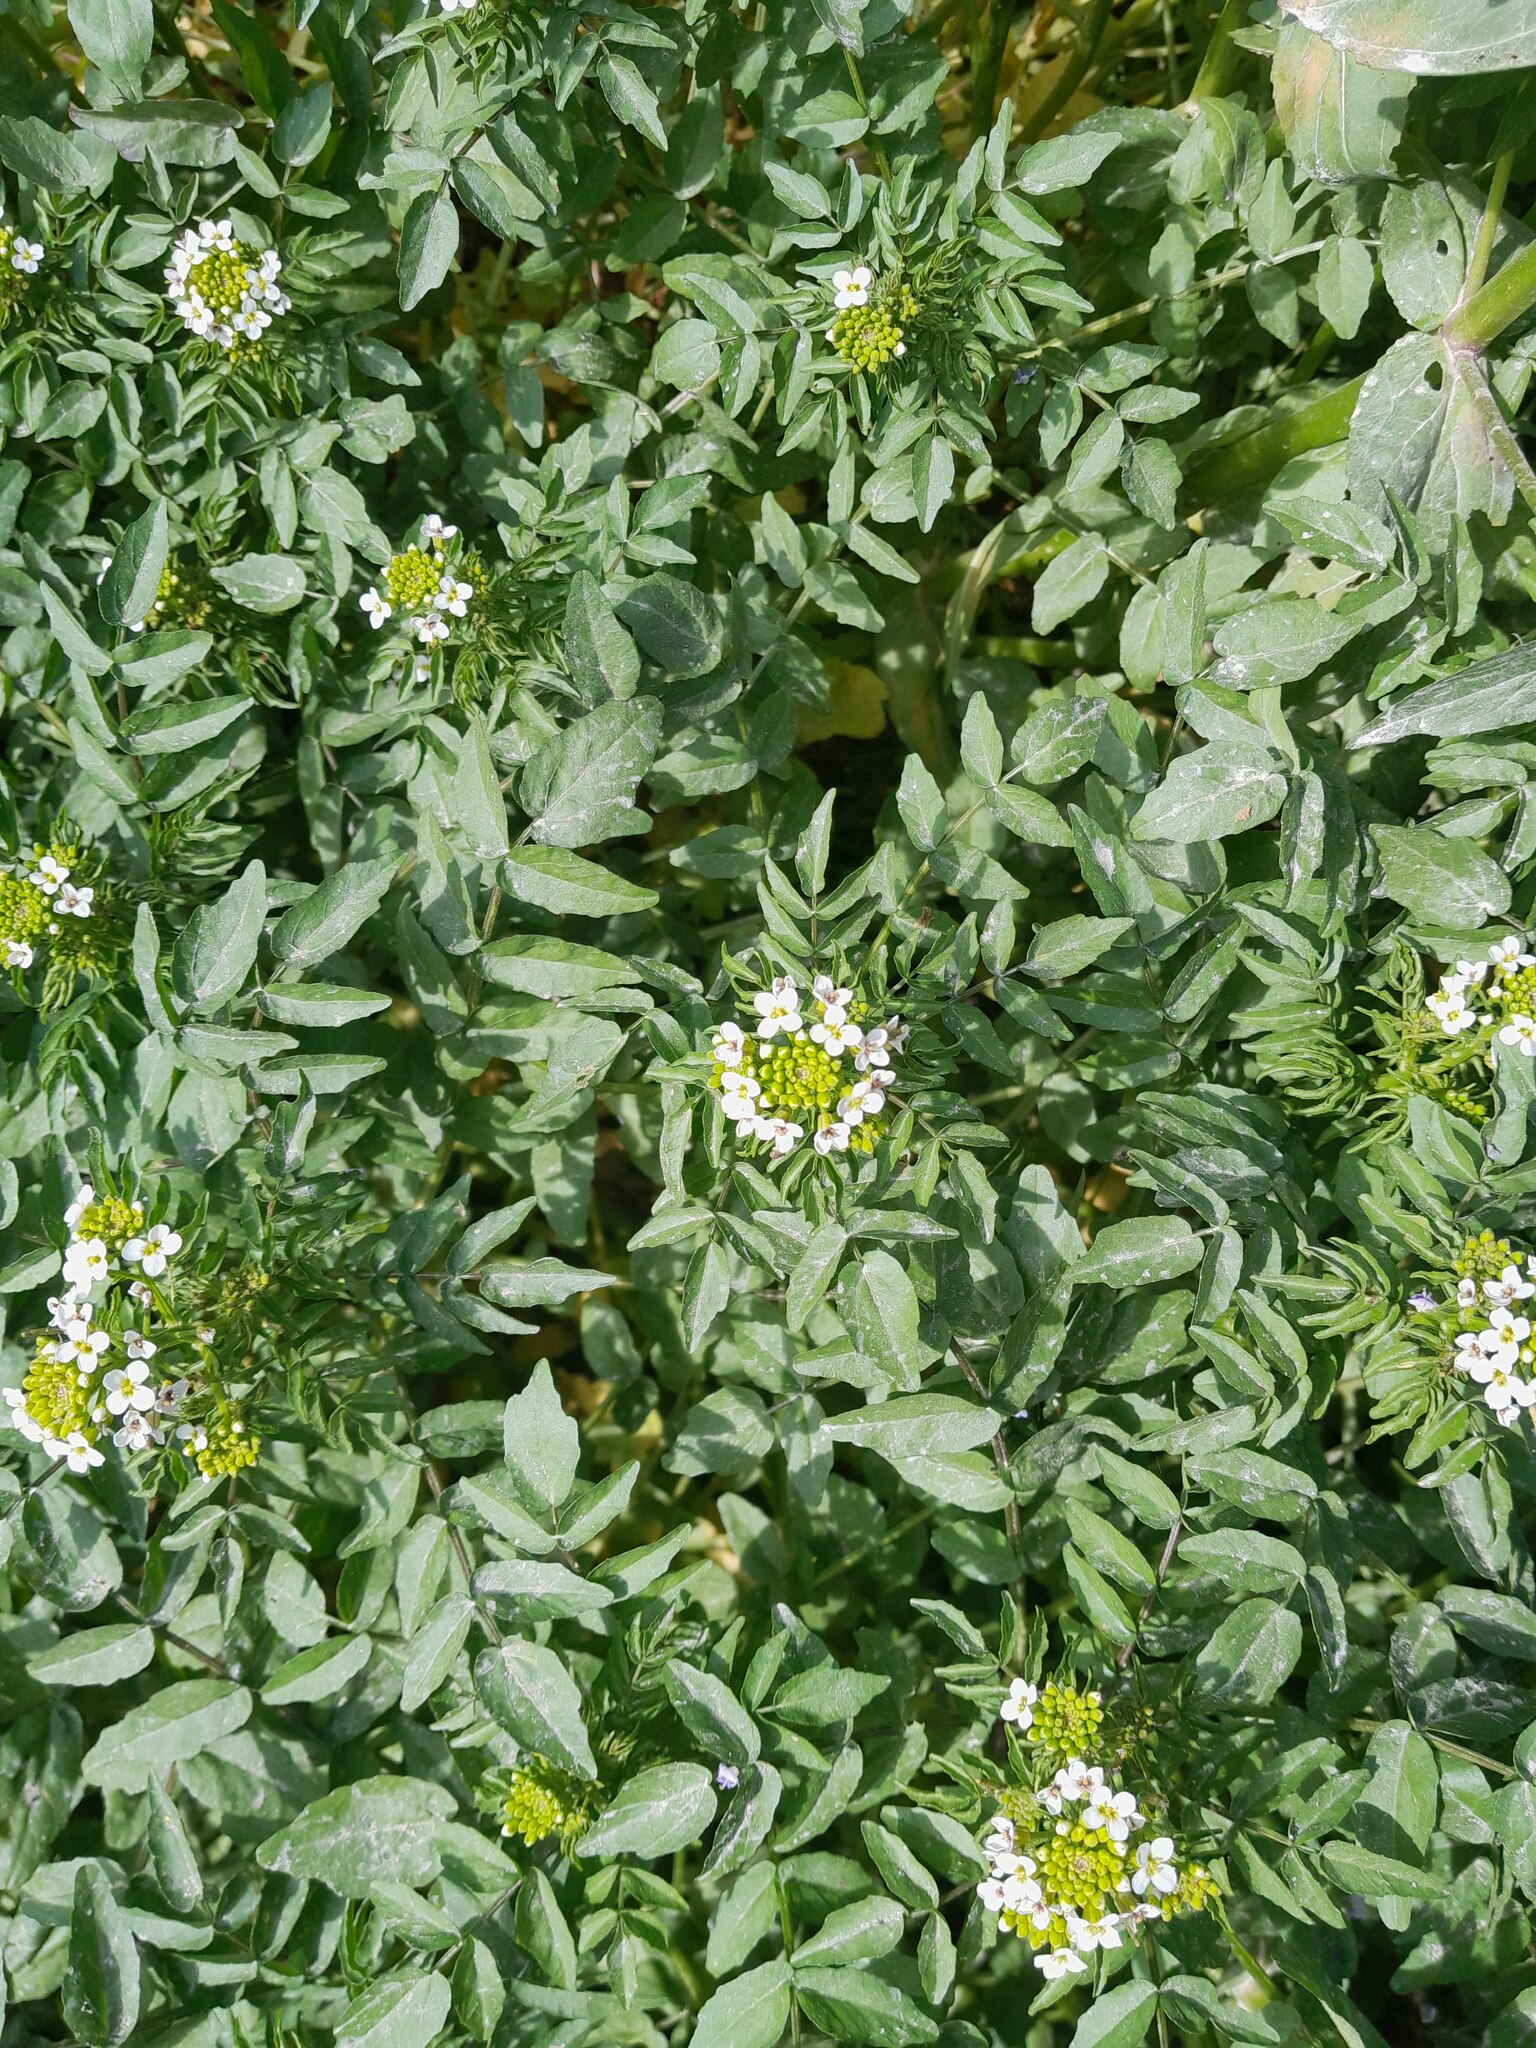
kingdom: Plantae
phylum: Tracheophyta
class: Magnoliopsida
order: Brassicales
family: Brassicaceae
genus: Nasturtium
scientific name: Nasturtium officinale
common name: Watercress
